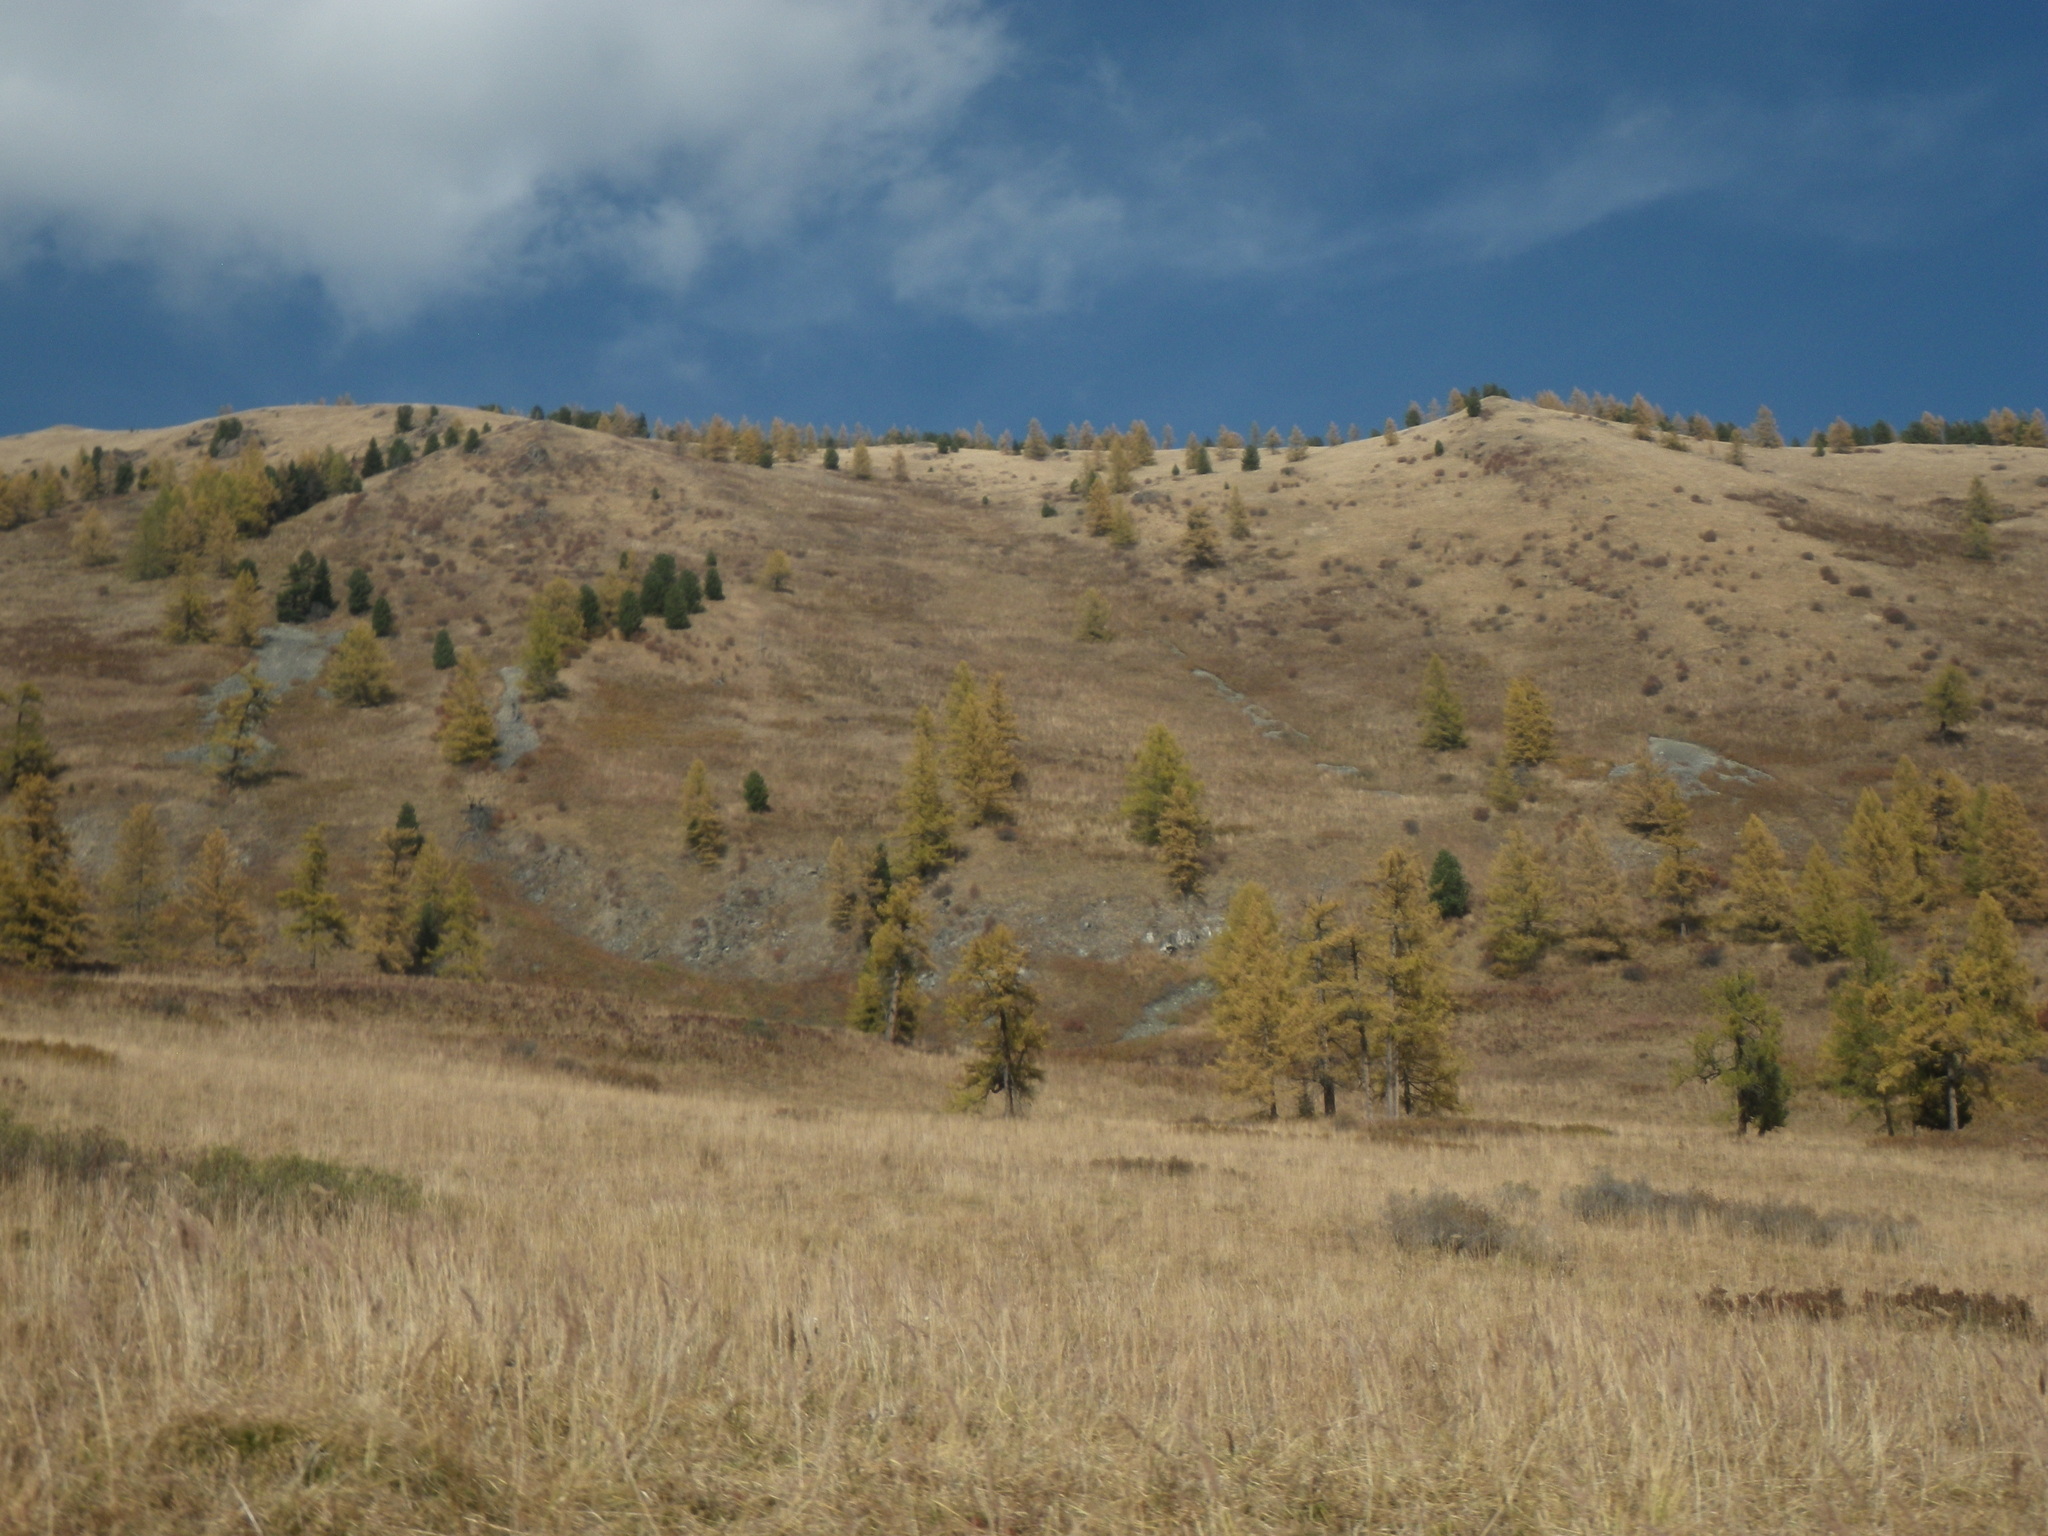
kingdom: Plantae
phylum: Tracheophyta
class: Pinopsida
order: Pinales
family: Pinaceae
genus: Larix
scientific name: Larix sibirica
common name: Siberian larch
